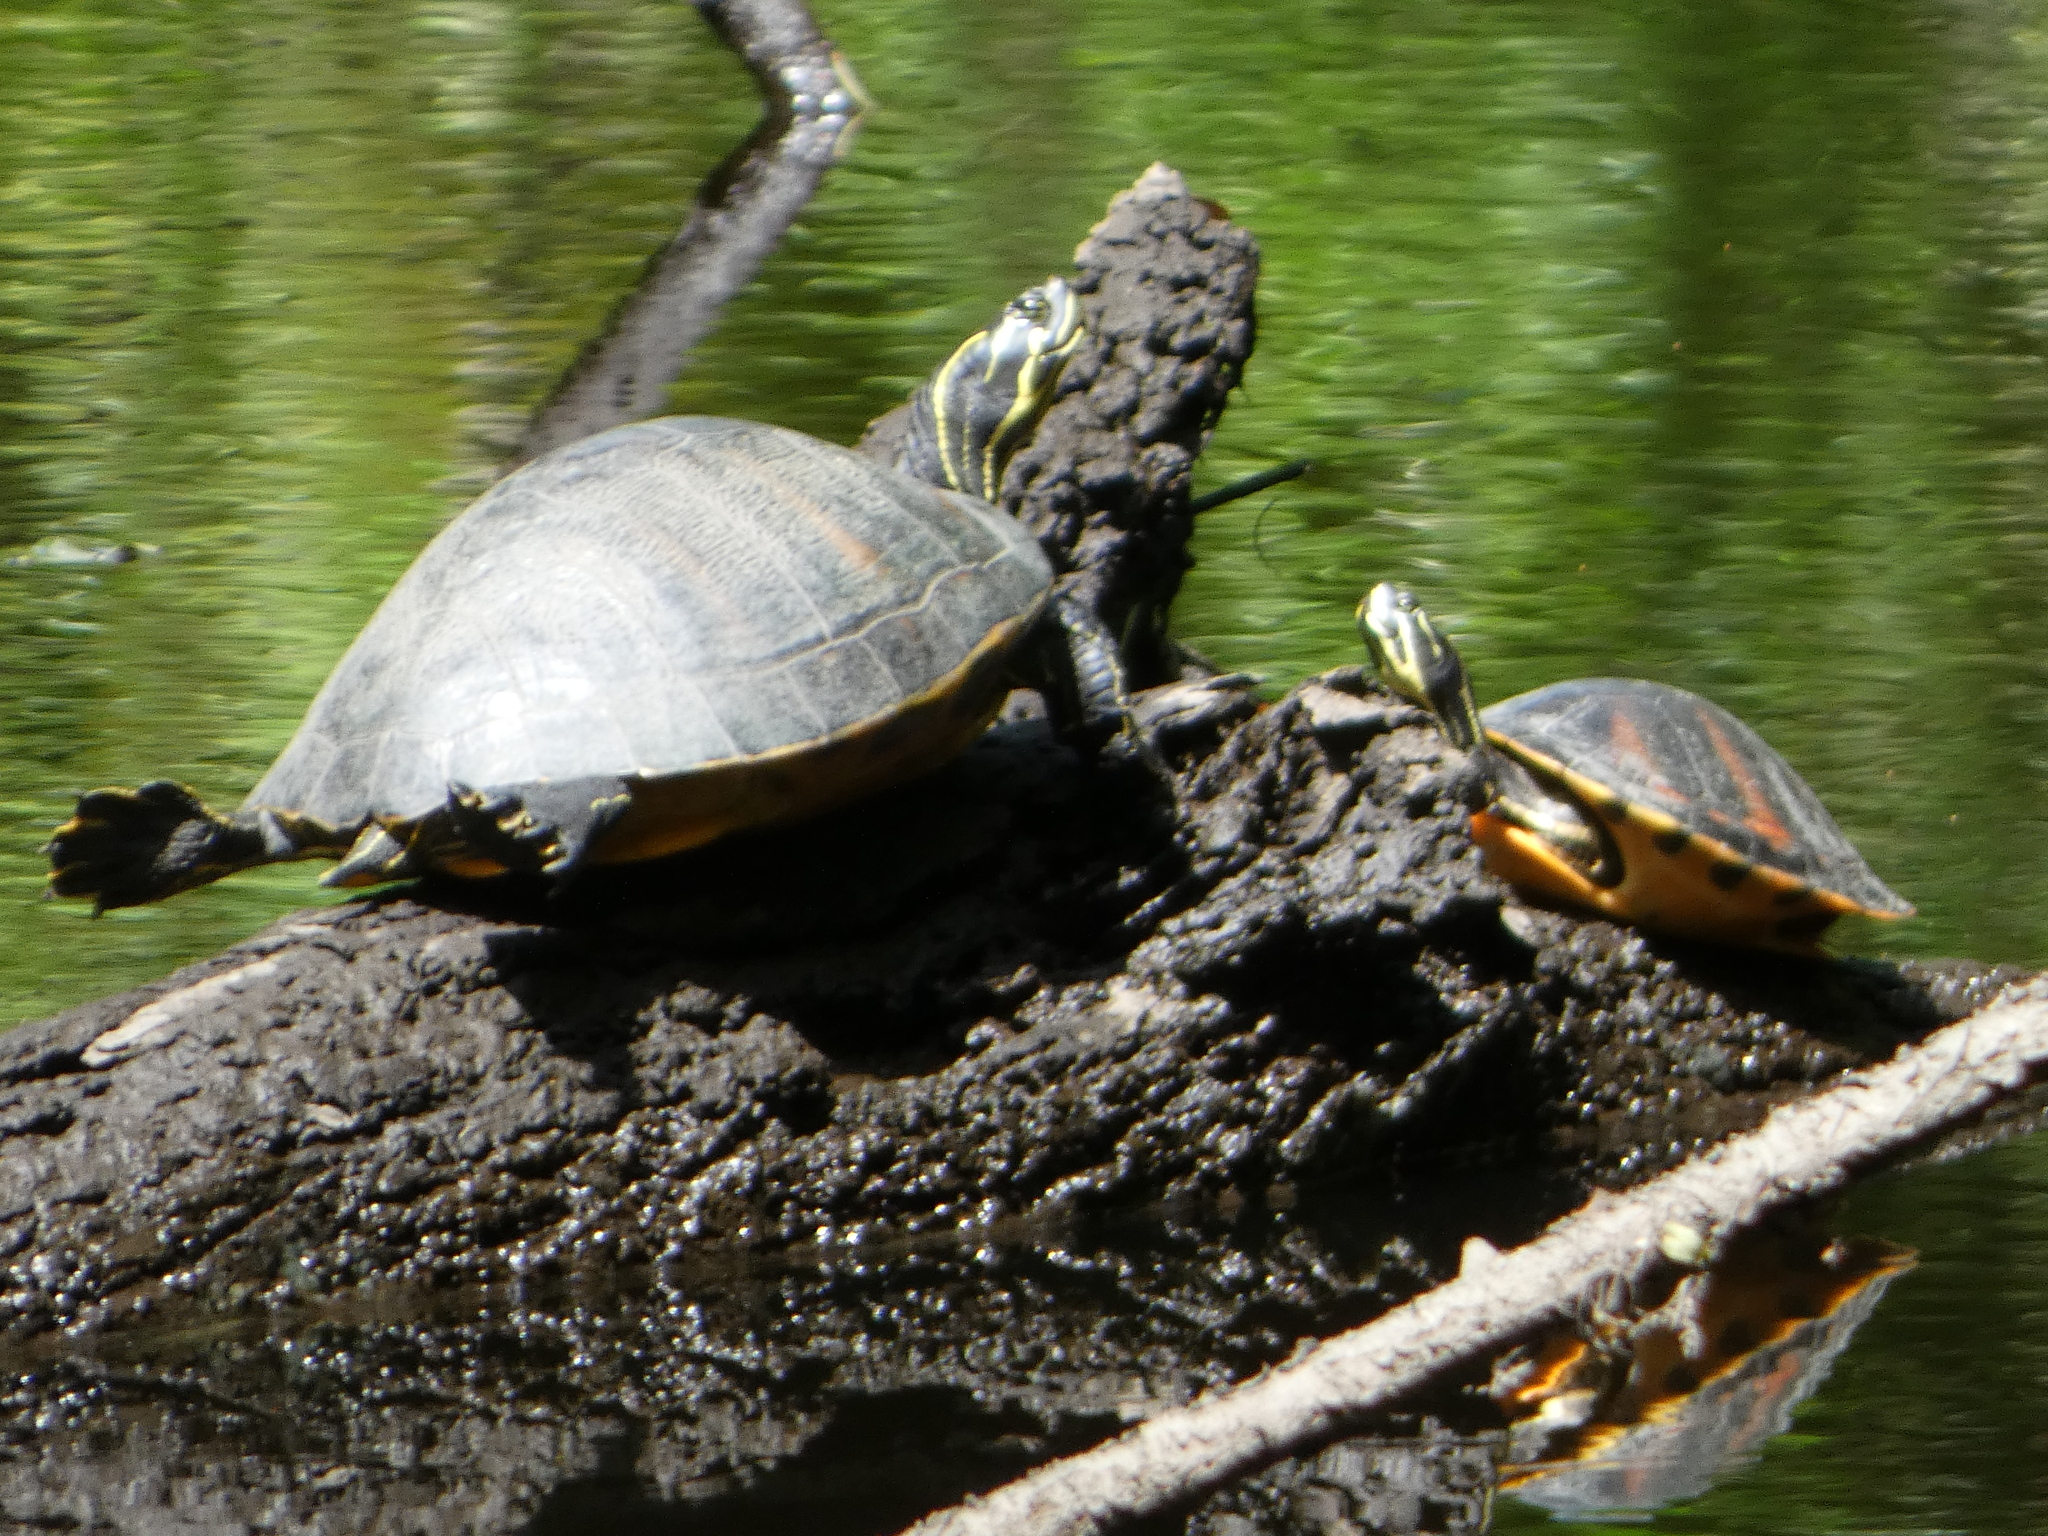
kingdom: Animalia
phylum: Chordata
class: Testudines
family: Emydidae
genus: Pseudemys
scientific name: Pseudemys nelsoni
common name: Florida red-bellied turtle
